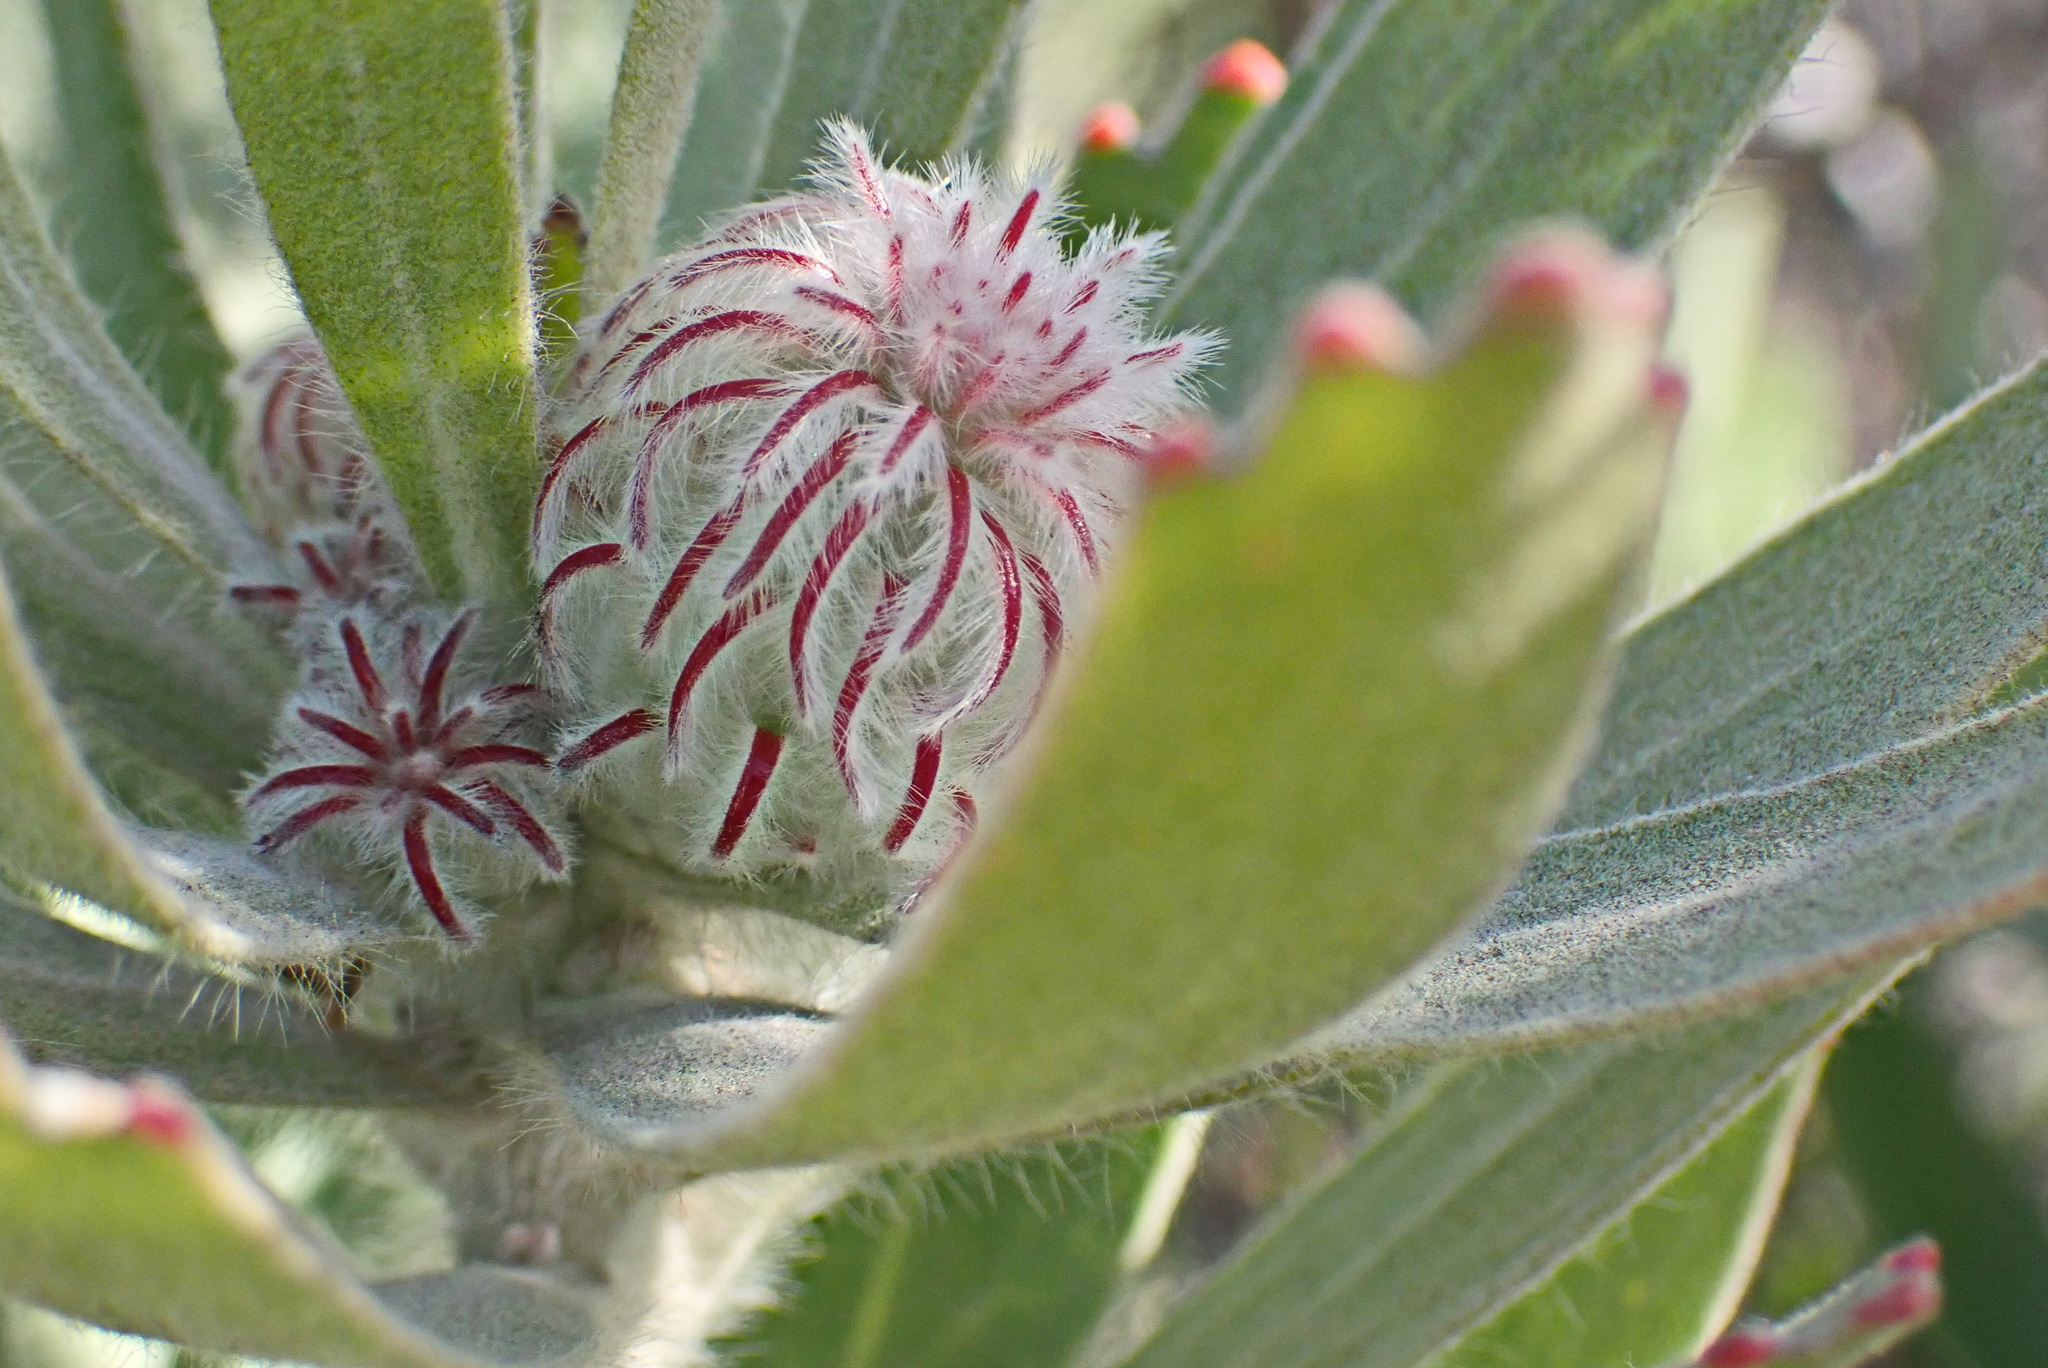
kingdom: Plantae
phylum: Tracheophyta
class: Magnoliopsida
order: Proteales
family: Proteaceae
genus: Leucospermum
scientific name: Leucospermum pluridens
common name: Robinson pincushion
